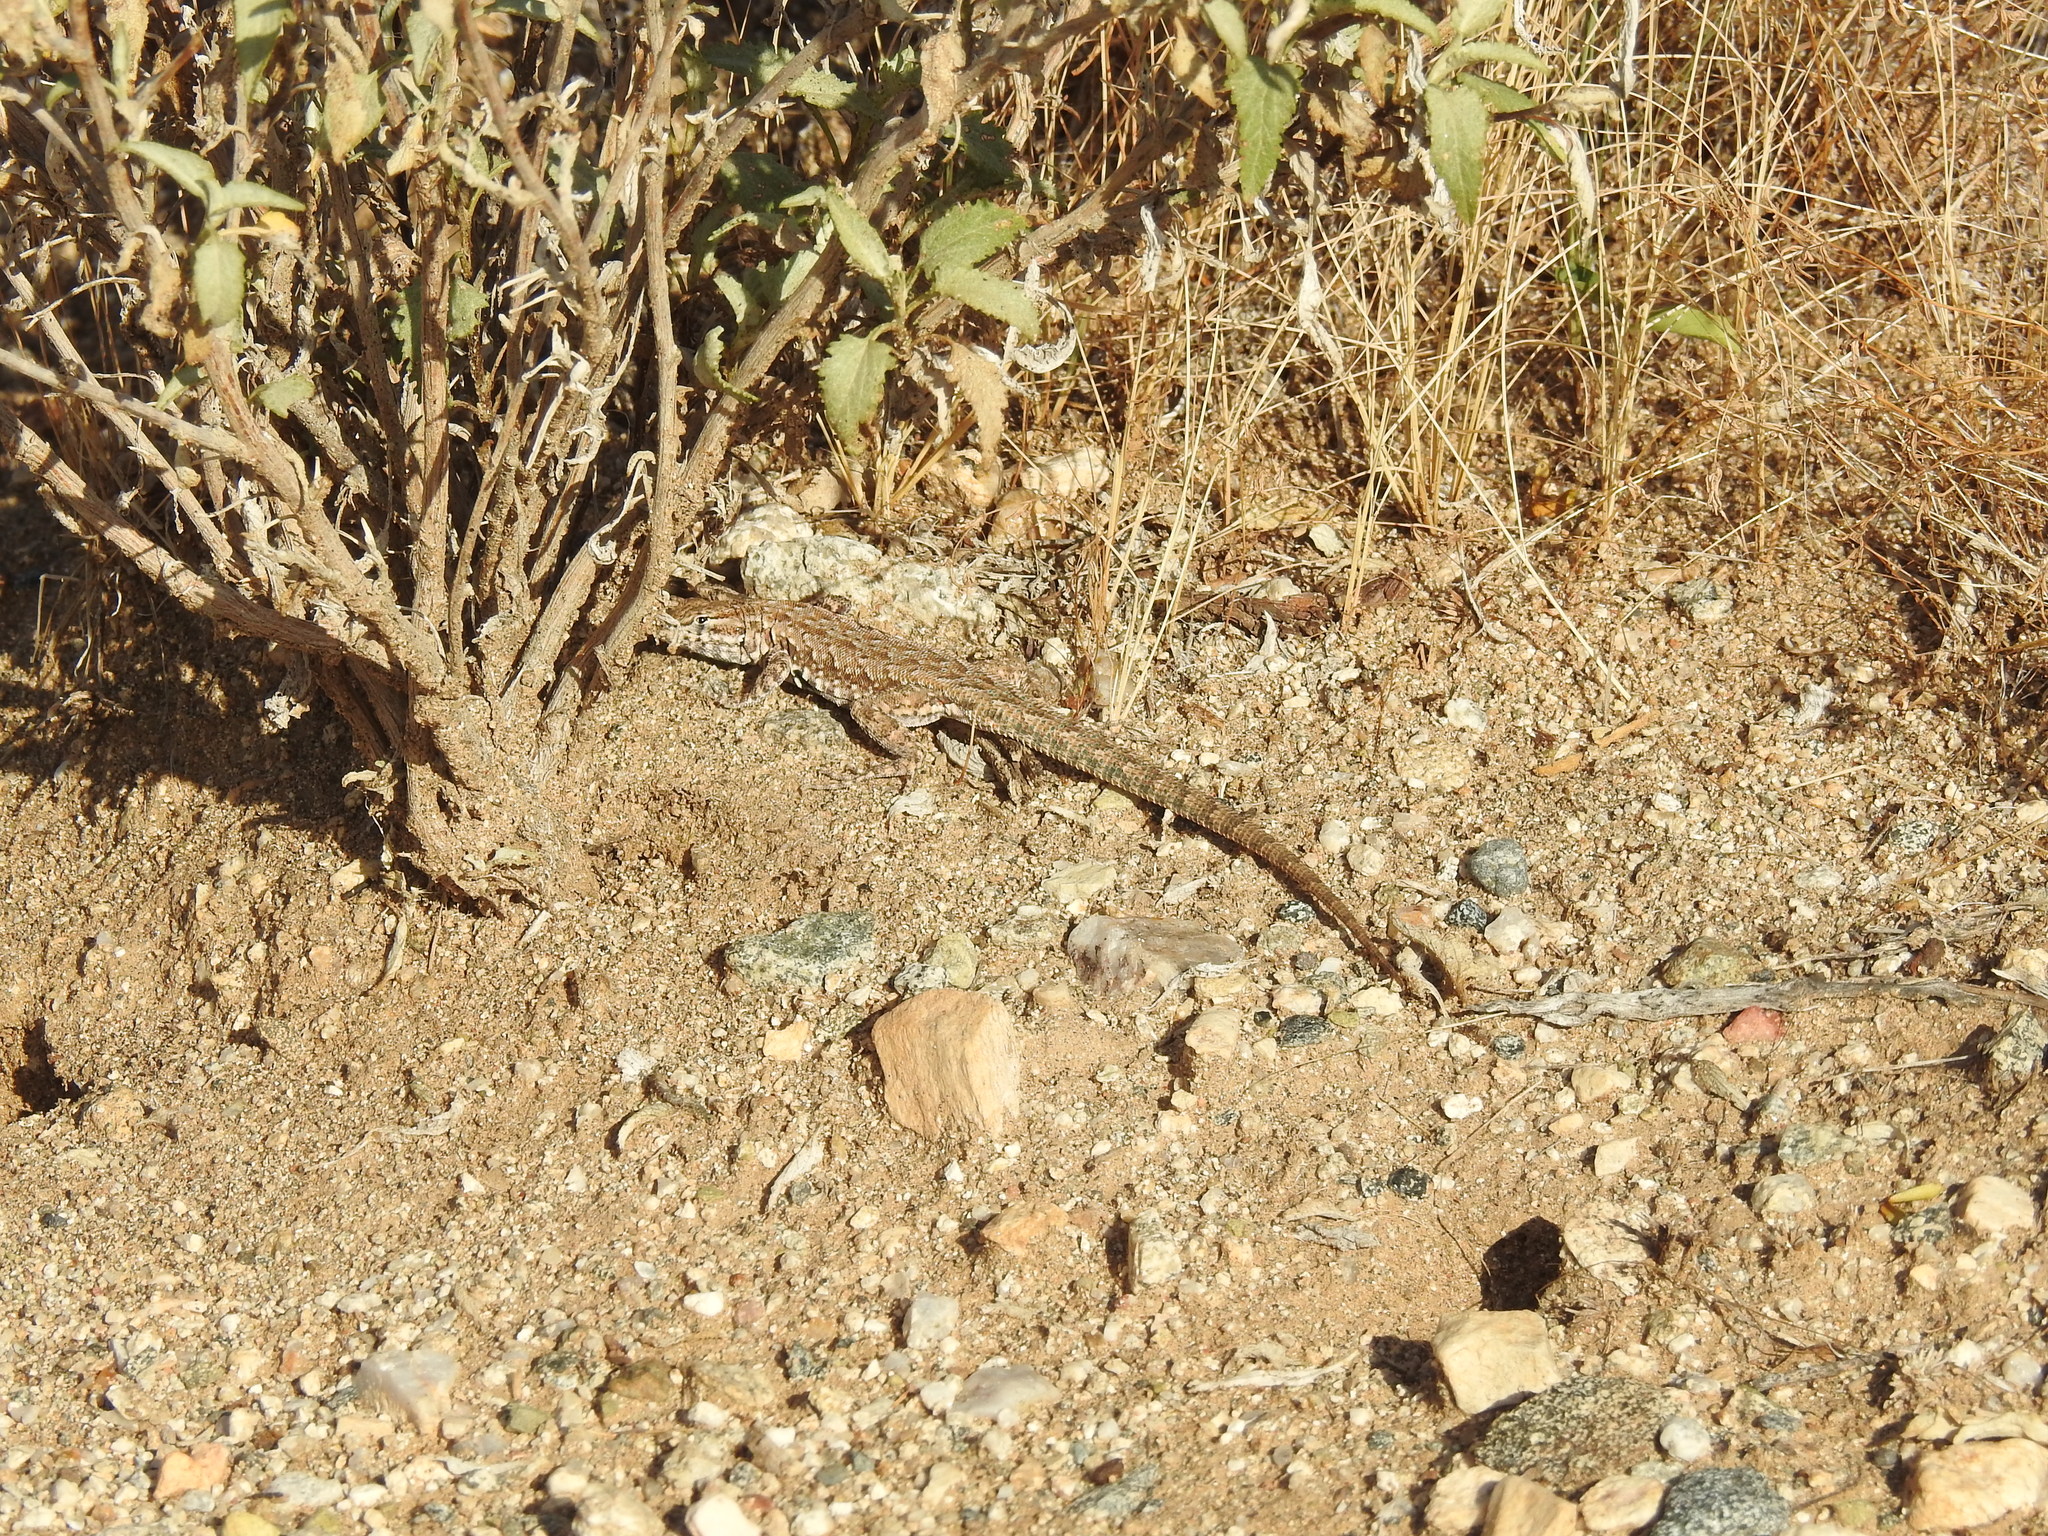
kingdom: Animalia
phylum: Chordata
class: Squamata
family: Phrynosomatidae
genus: Uta
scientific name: Uta stansburiana
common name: Side-blotched lizard
